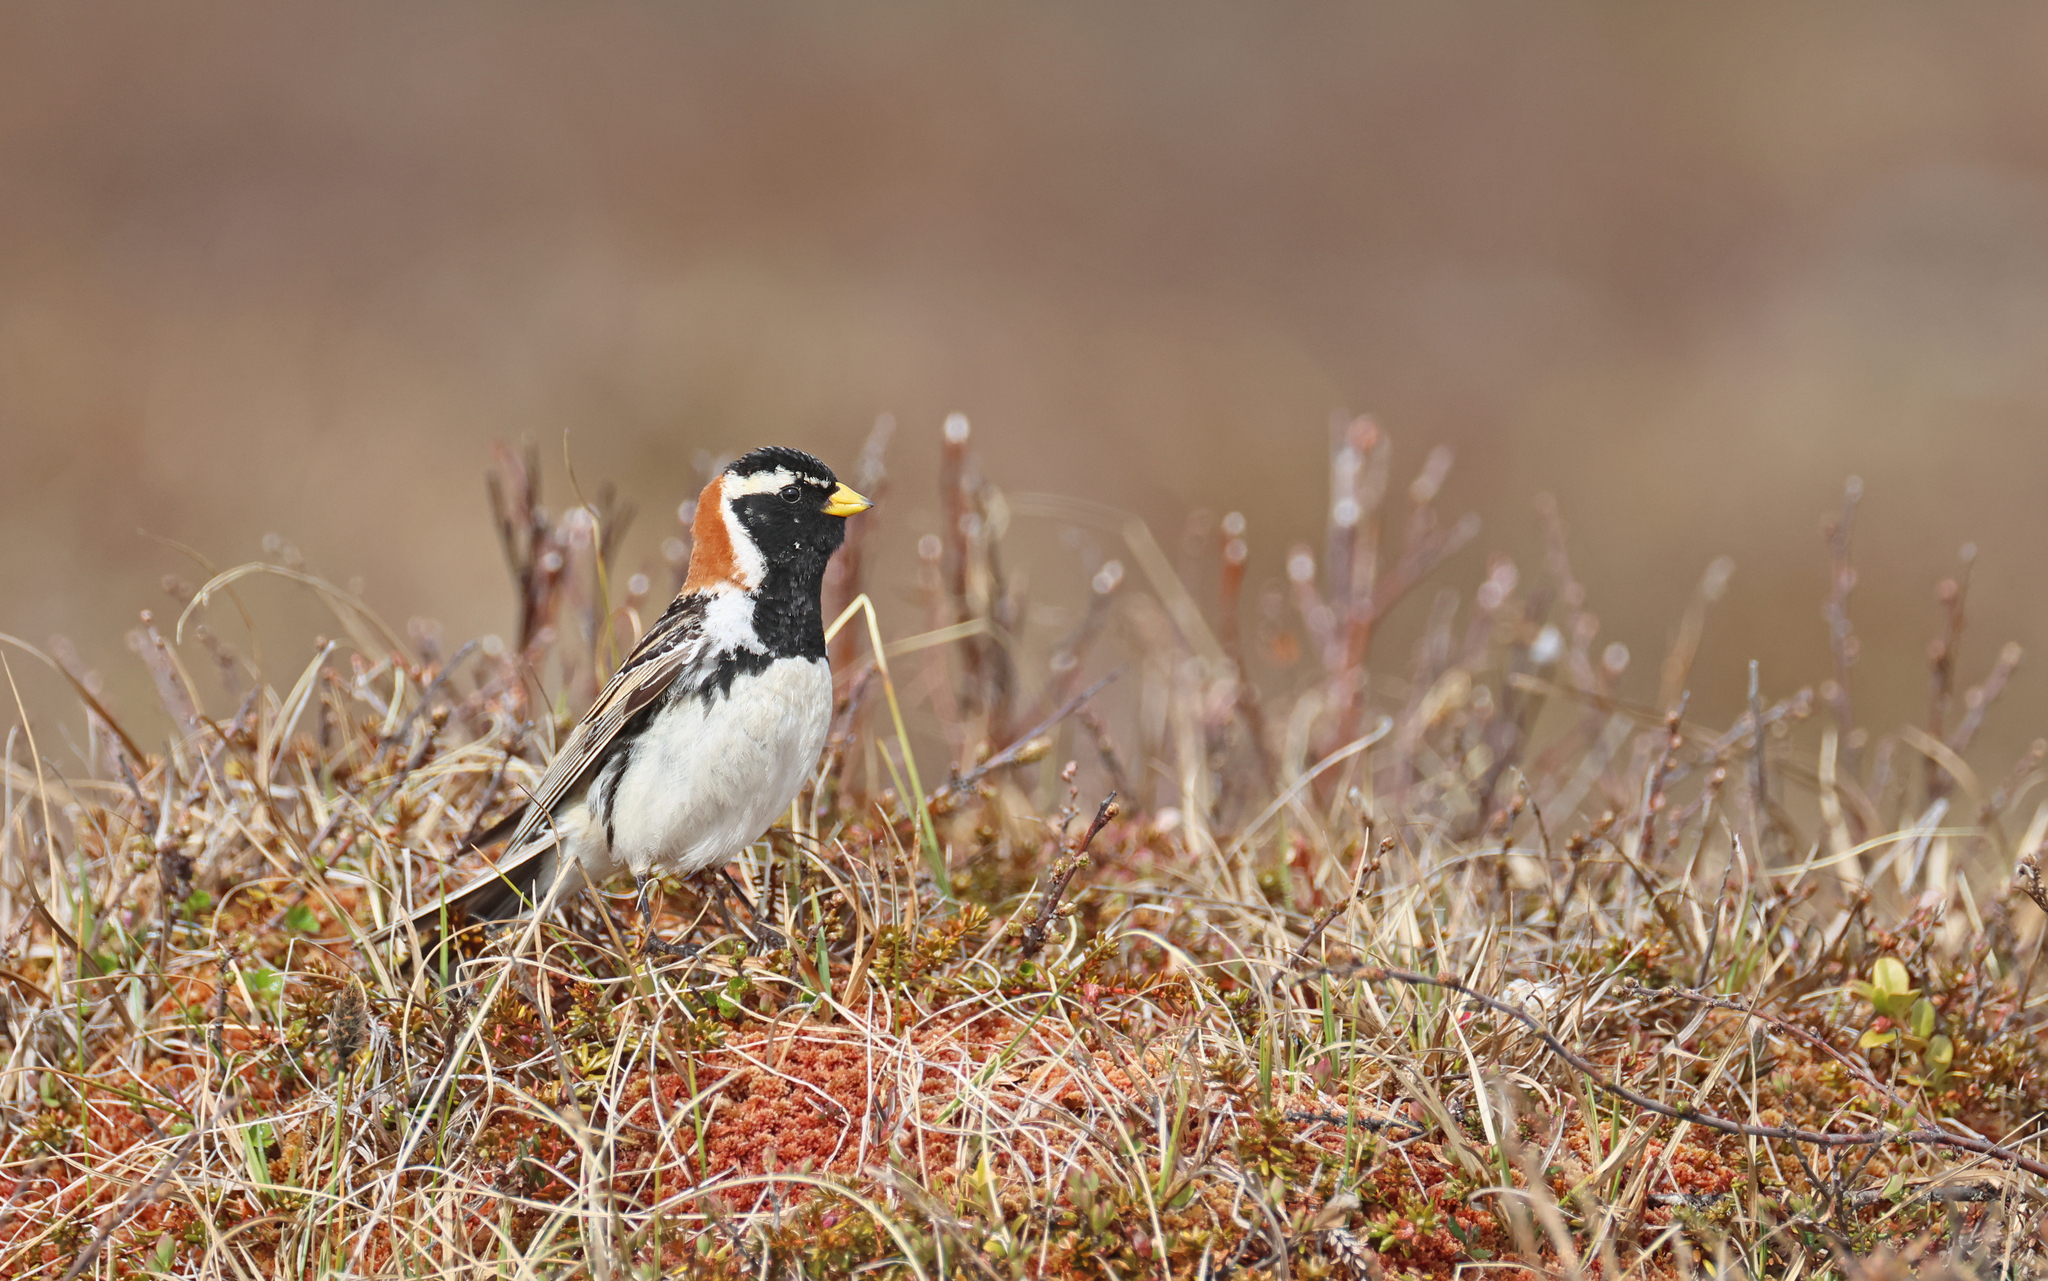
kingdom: Animalia
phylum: Chordata
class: Aves
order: Passeriformes
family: Calcariidae
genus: Calcarius
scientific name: Calcarius lapponicus
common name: Lapland longspur
